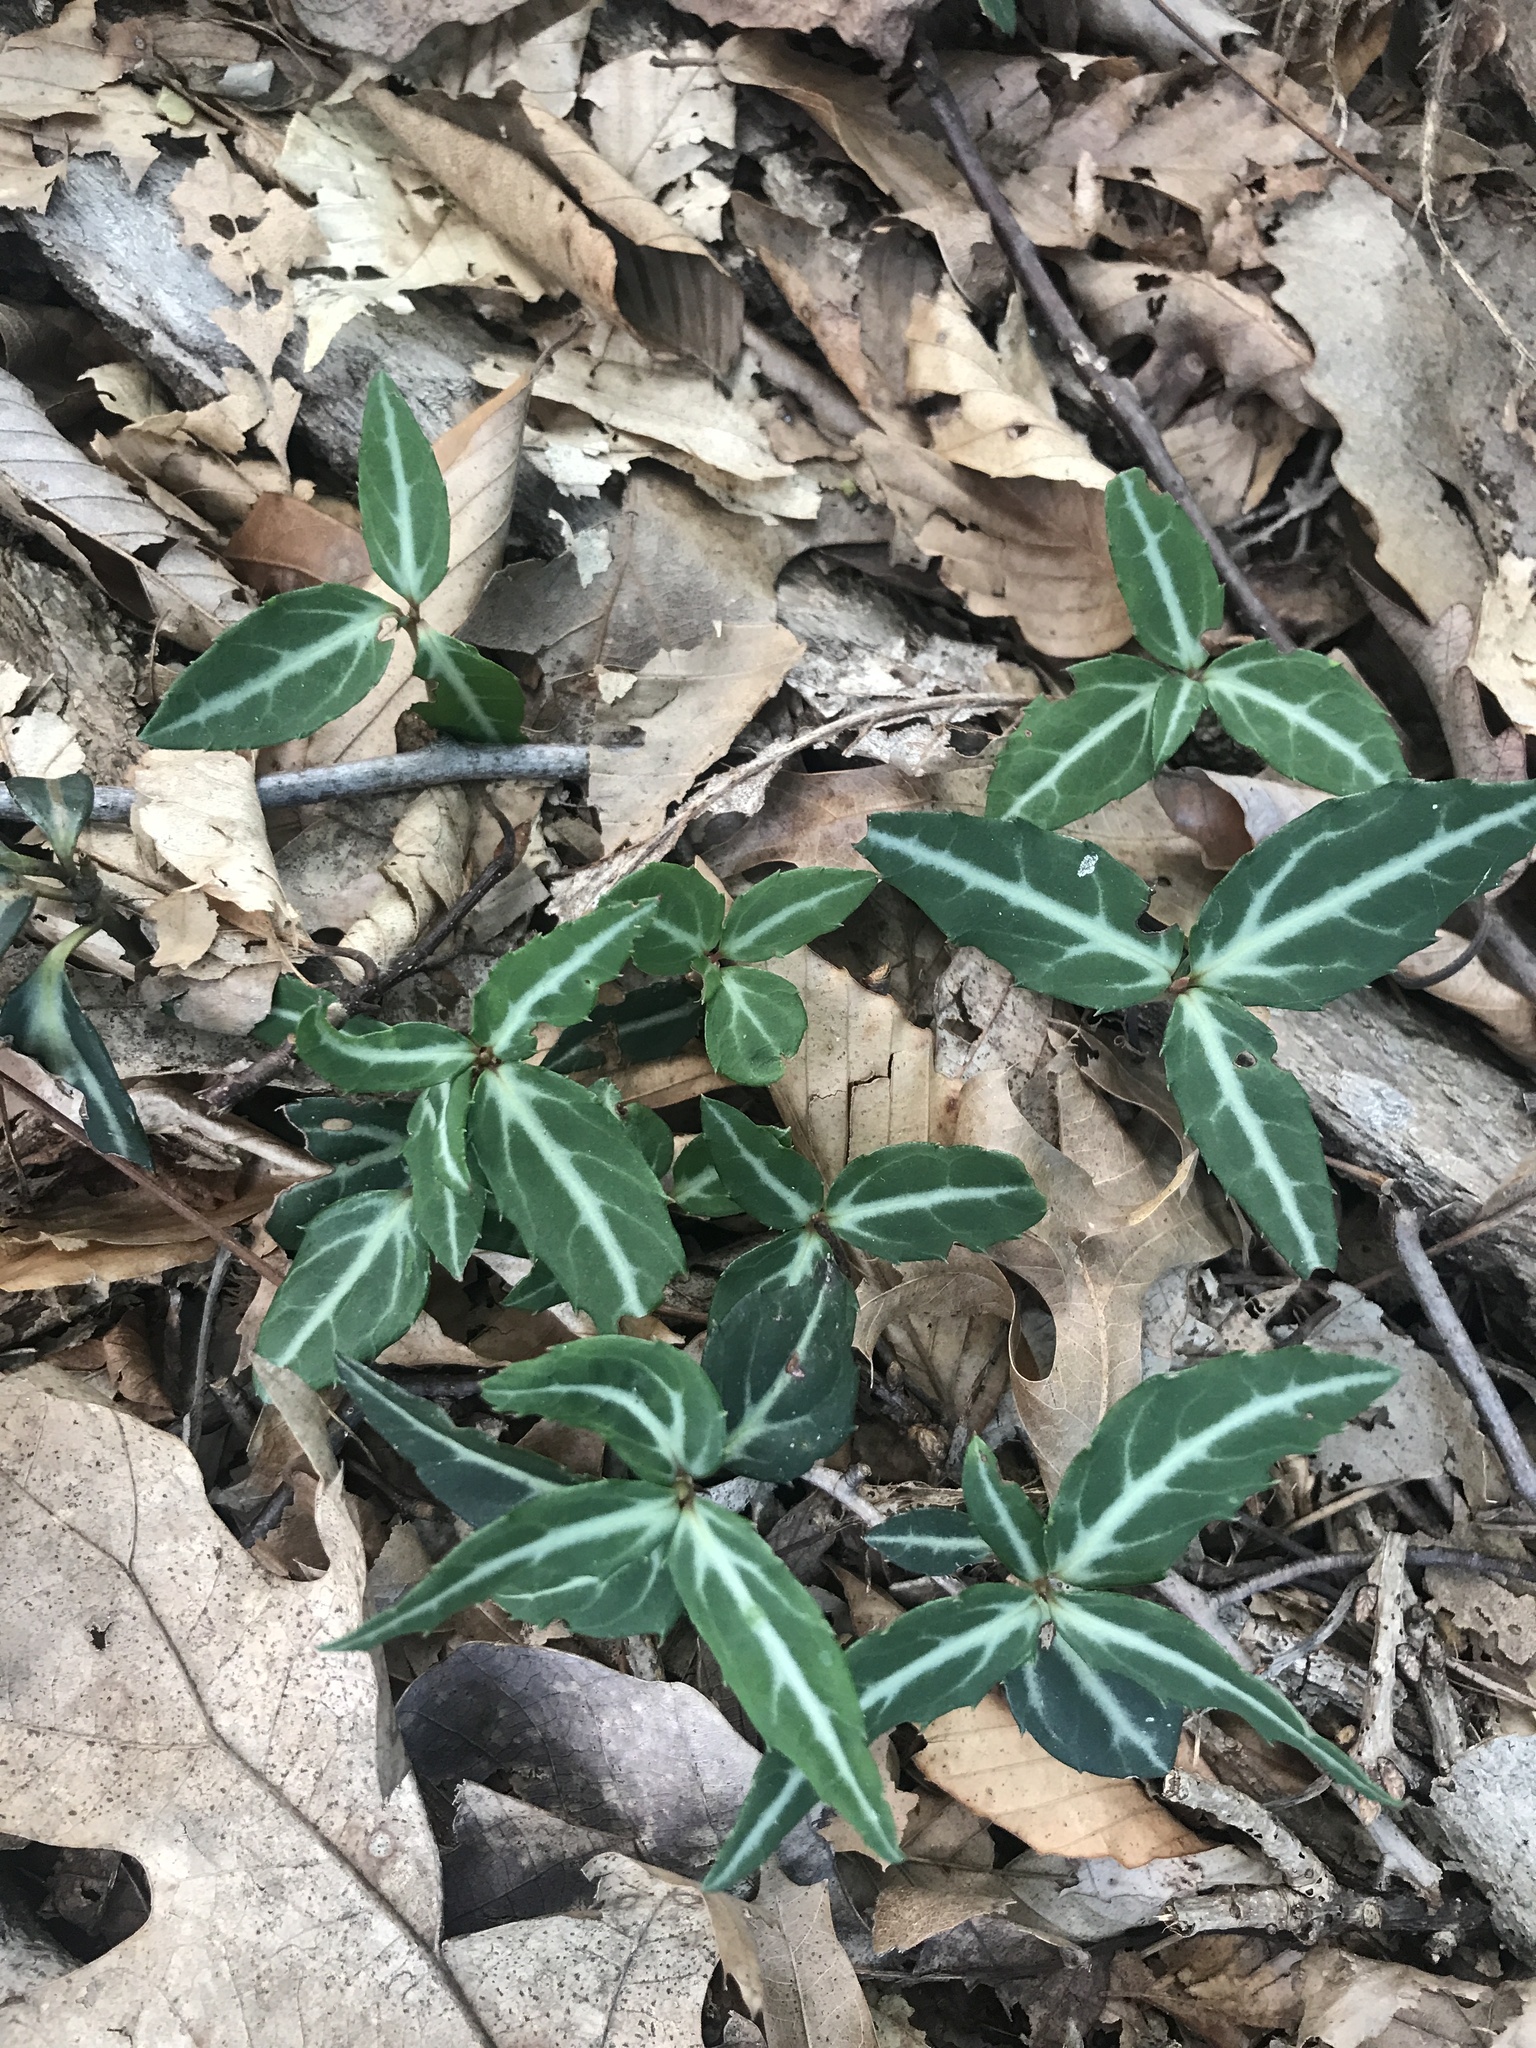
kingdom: Plantae
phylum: Tracheophyta
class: Magnoliopsida
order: Ericales
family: Ericaceae
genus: Chimaphila
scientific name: Chimaphila maculata
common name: Spotted pipsissewa
